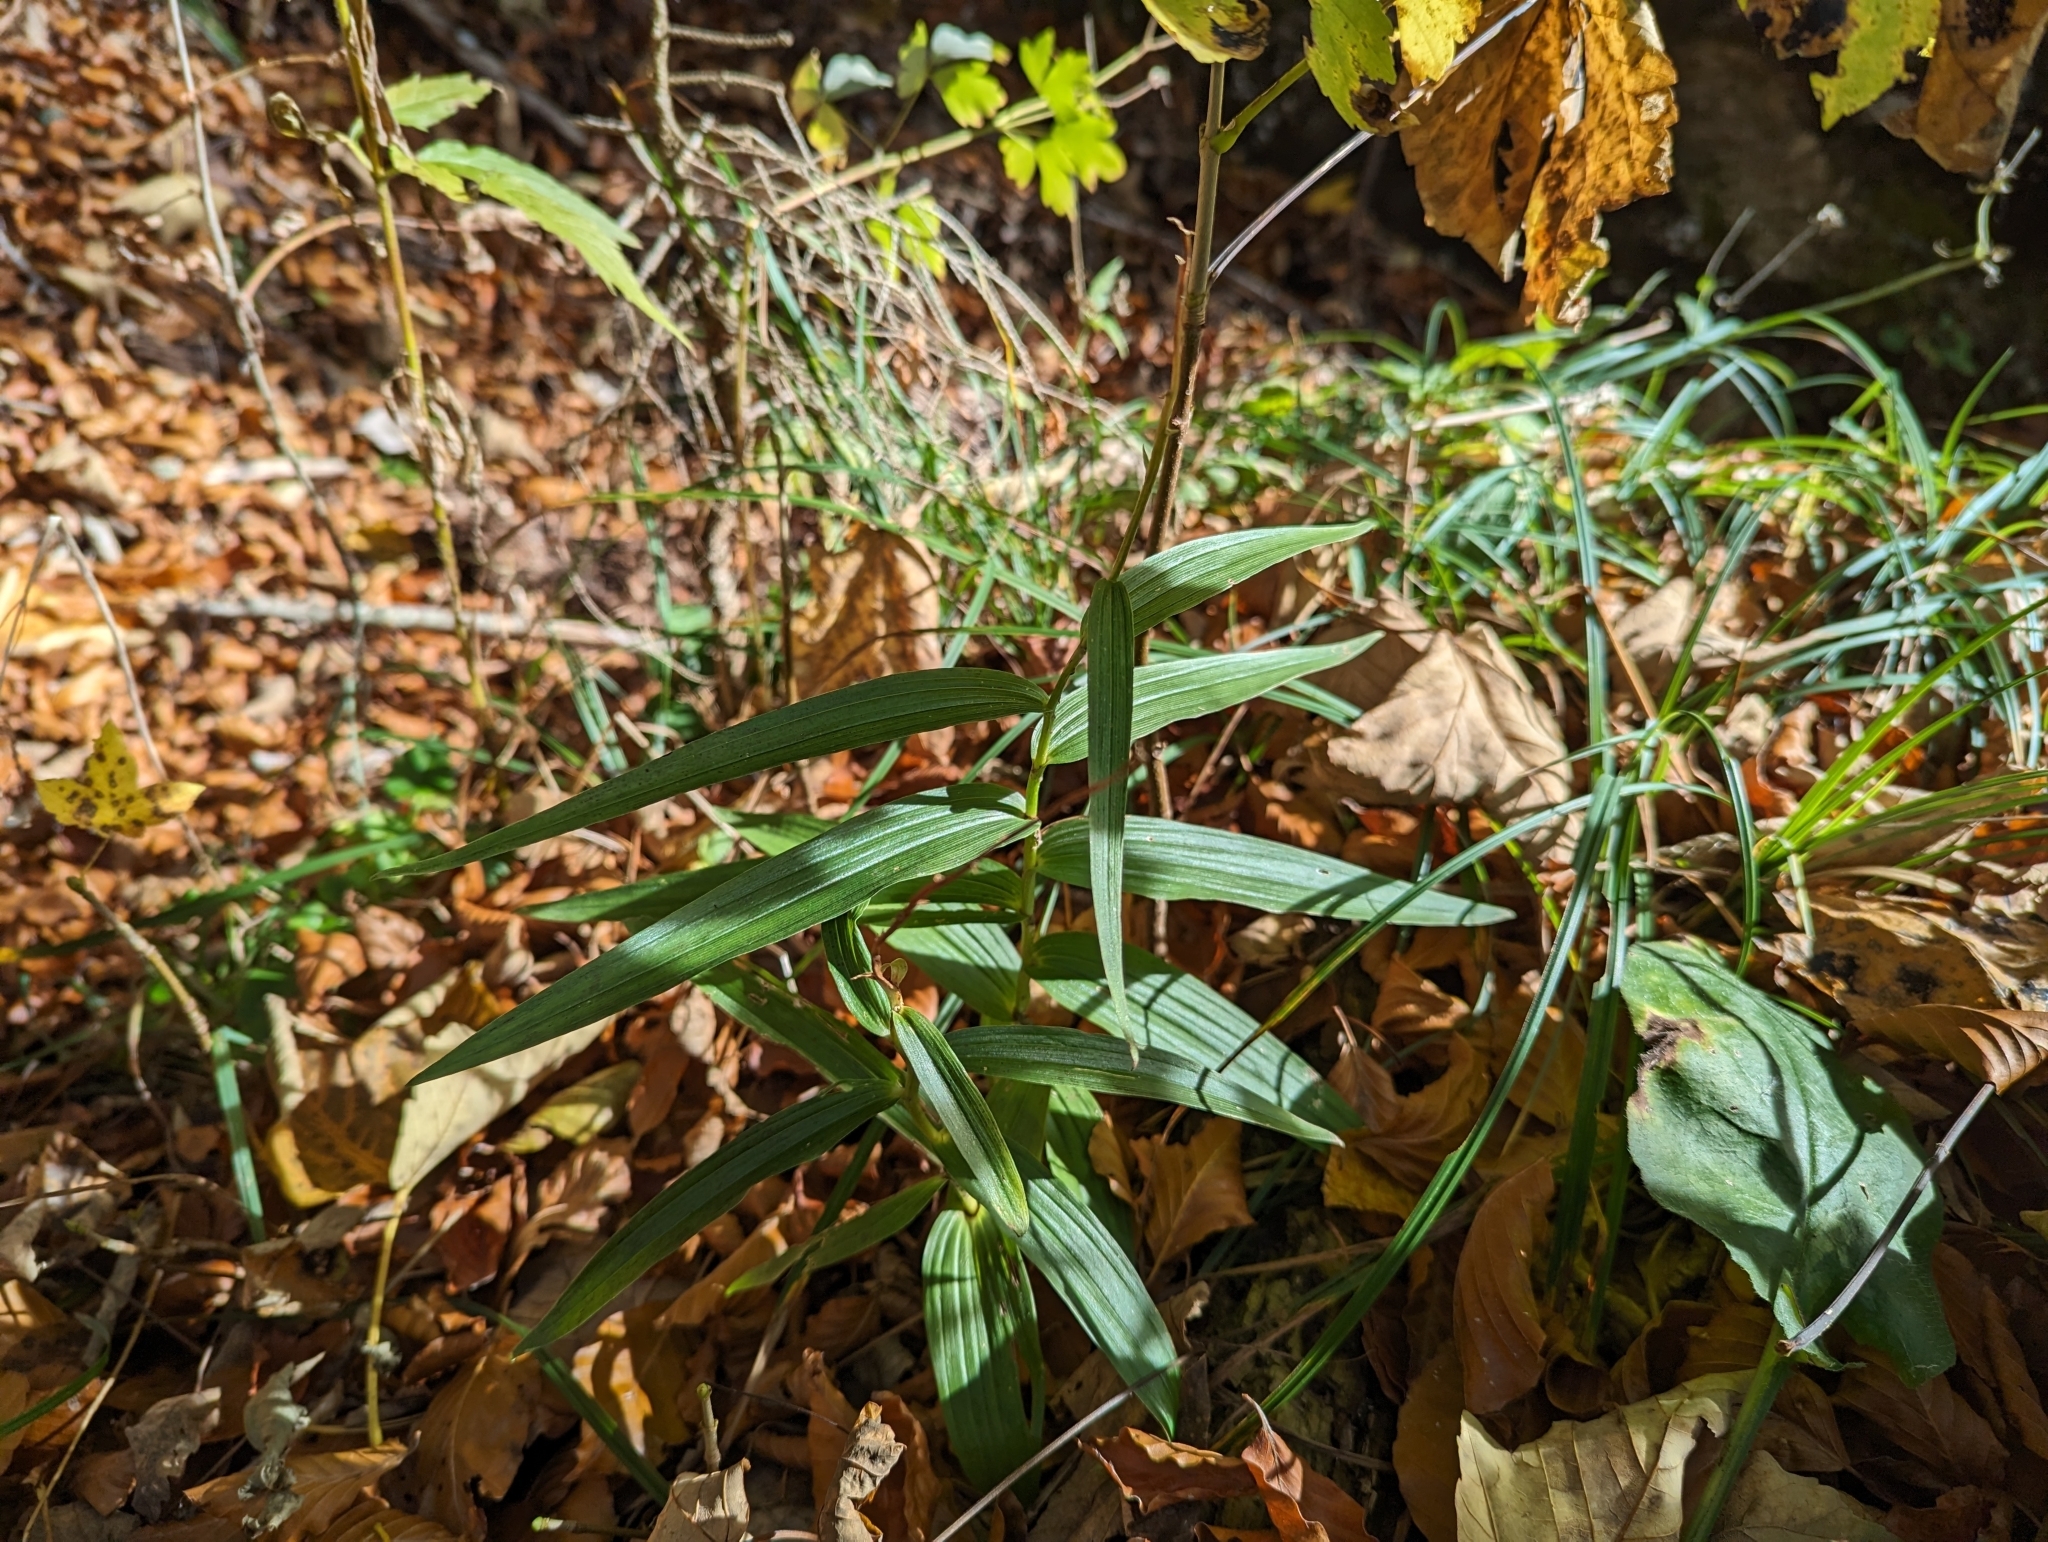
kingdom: Plantae
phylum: Tracheophyta
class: Liliopsida
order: Asparagales
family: Orchidaceae
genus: Cephalanthera
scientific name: Cephalanthera longifolia
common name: Narrow-leaved helleborine
